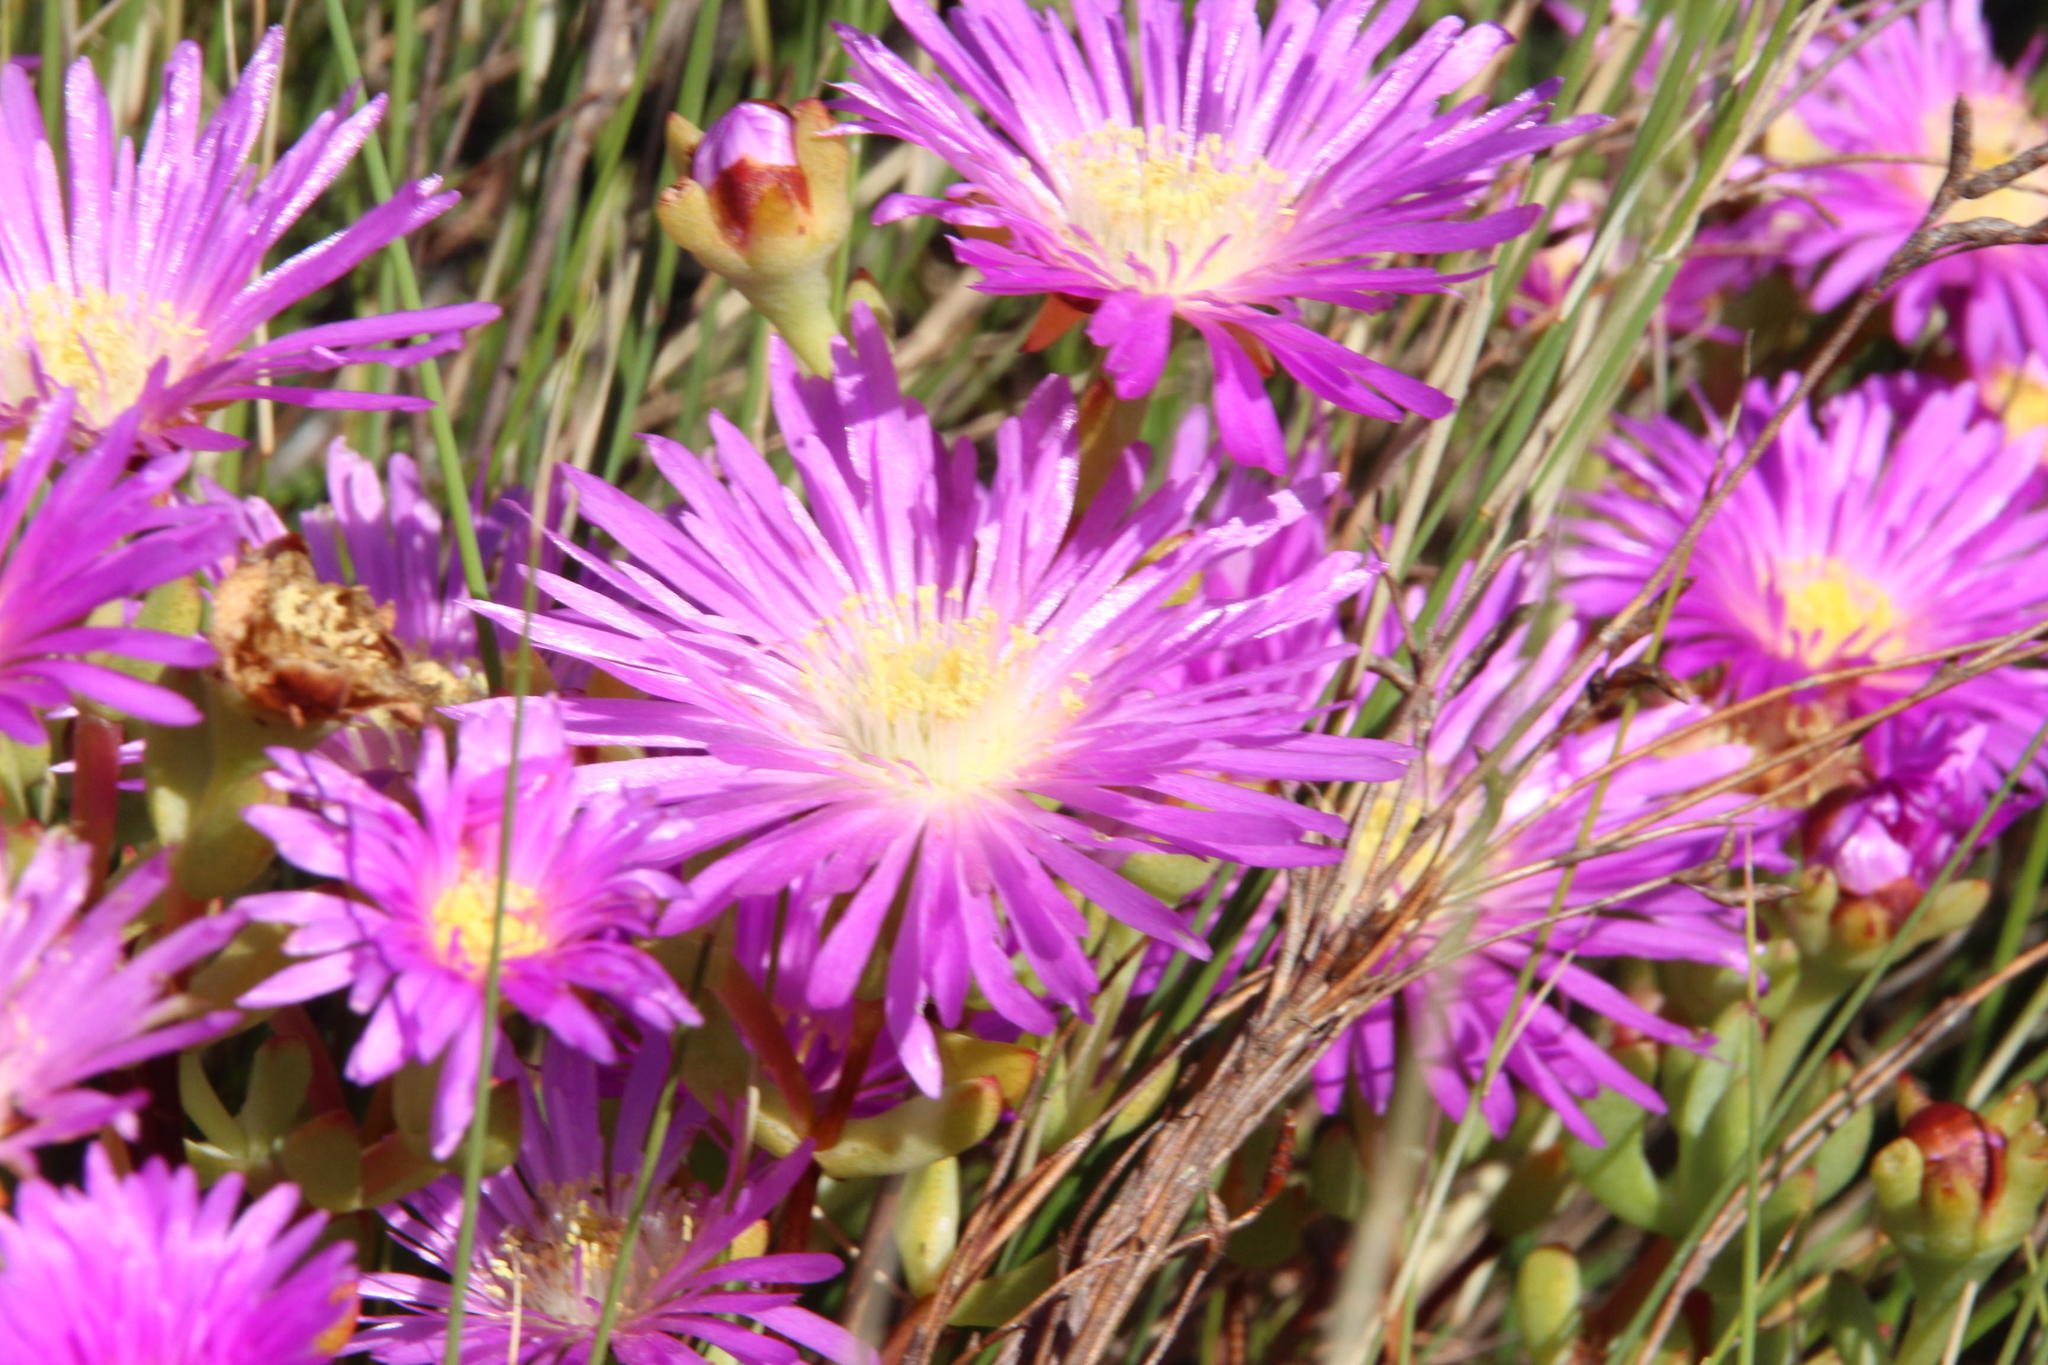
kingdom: Plantae
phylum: Tracheophyta
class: Magnoliopsida
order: Caryophyllales
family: Aizoaceae
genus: Oscularia
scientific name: Oscularia falciformis
